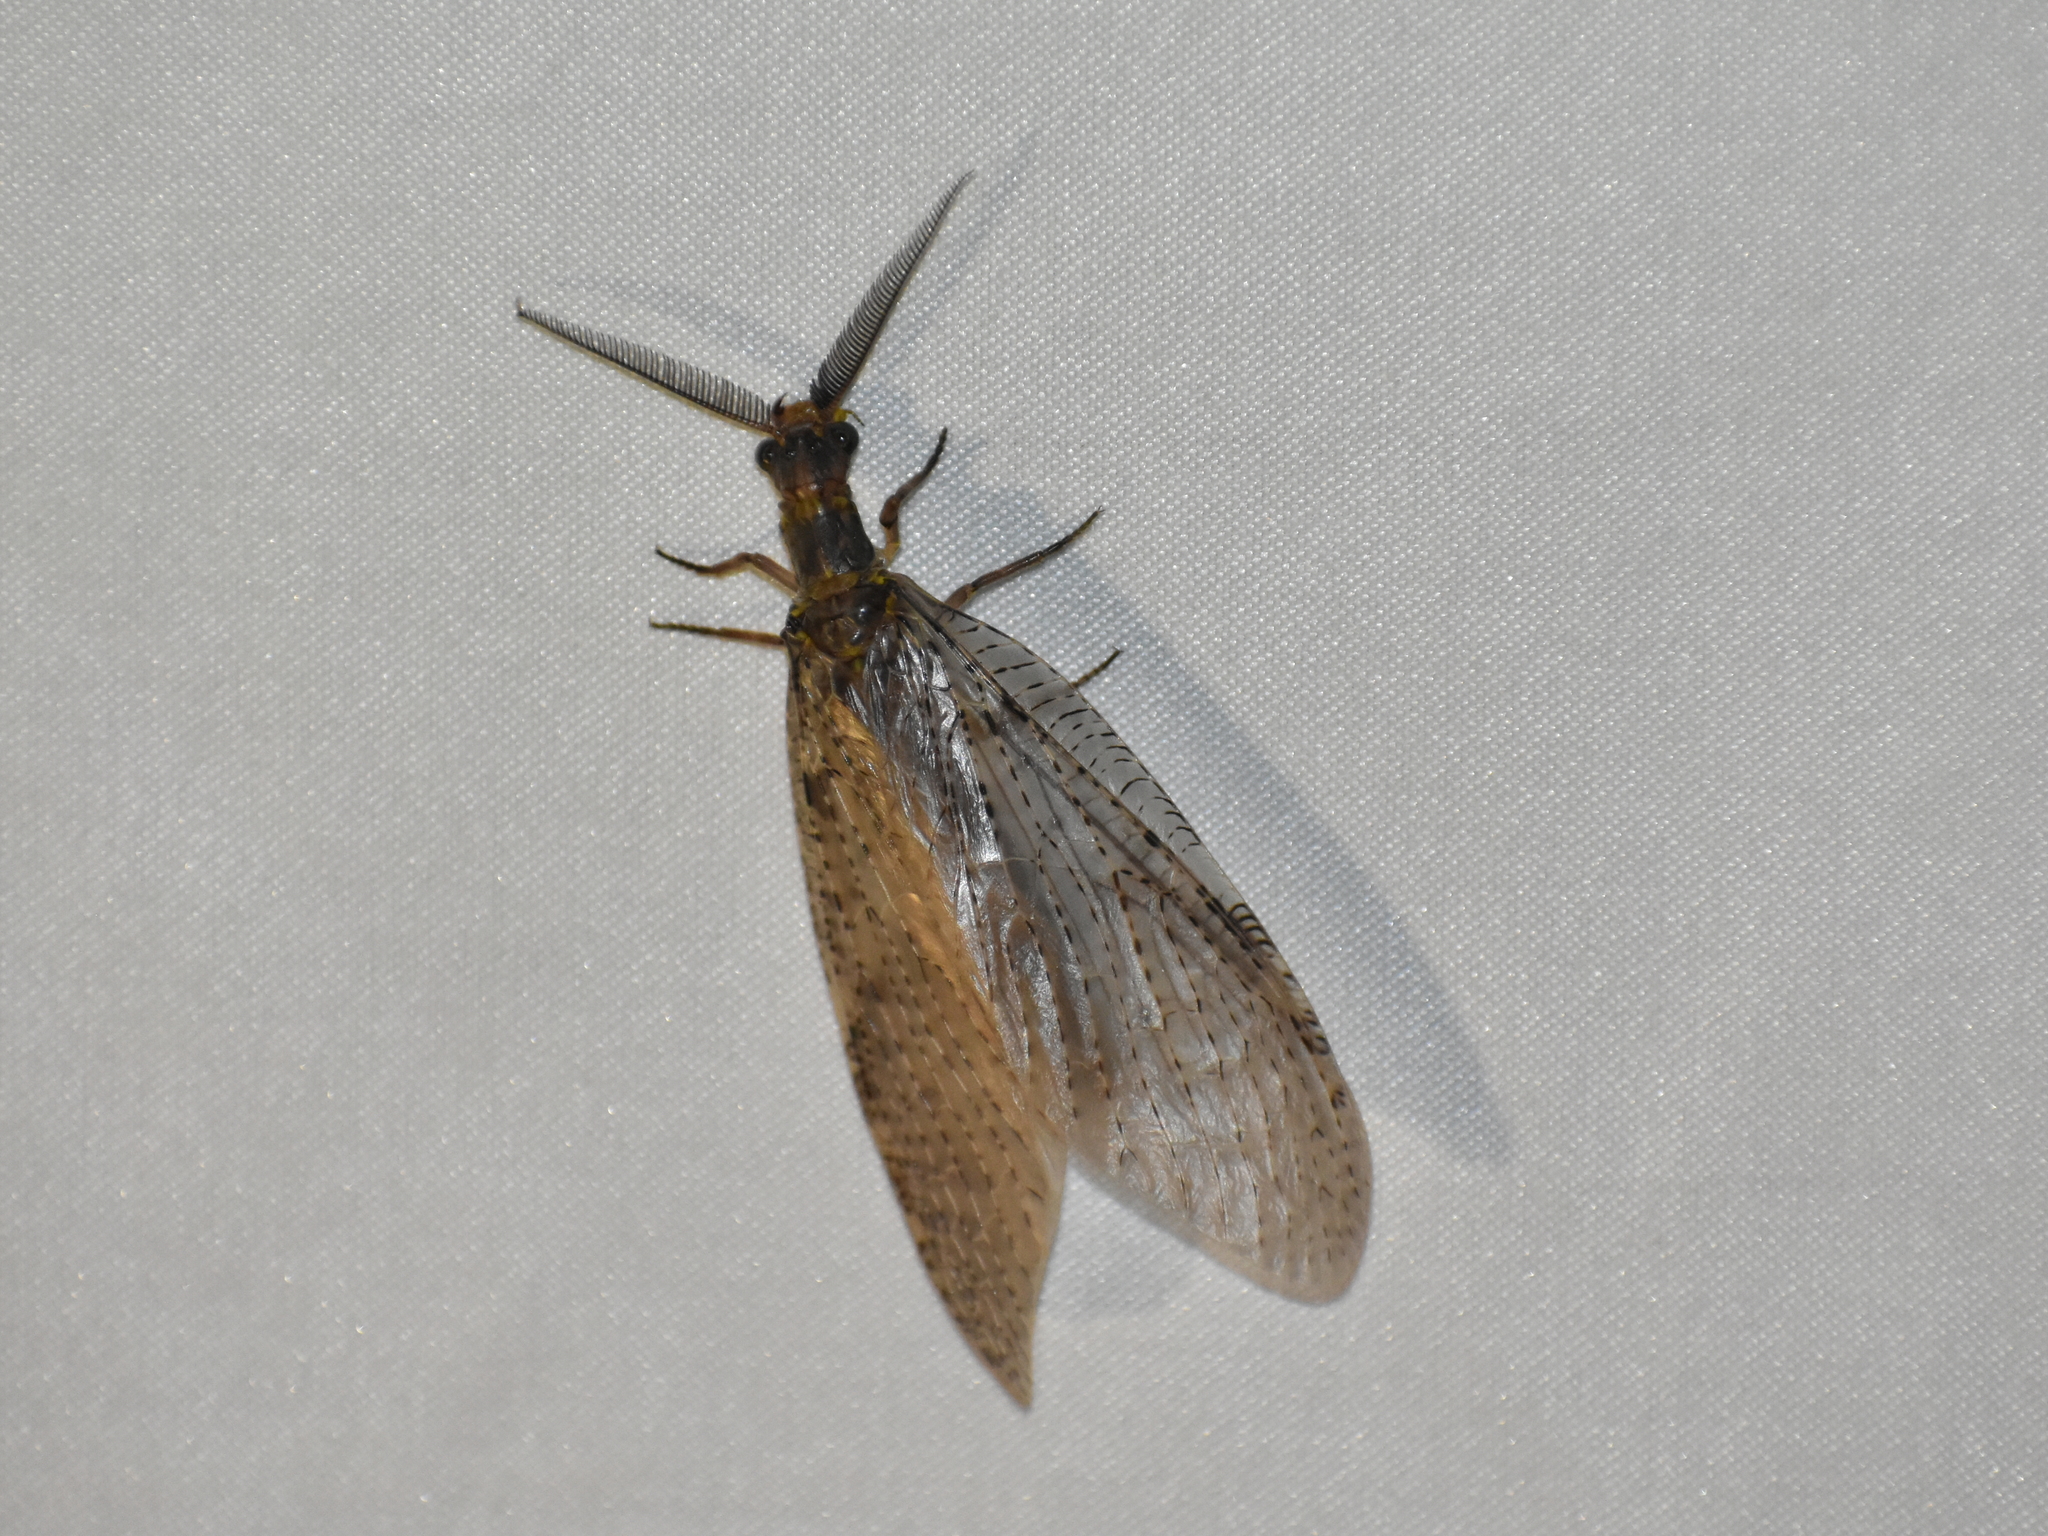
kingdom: Animalia
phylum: Arthropoda
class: Insecta
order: Megaloptera
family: Corydalidae
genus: Chauliodes
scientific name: Chauliodes pectinicornis
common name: Summer fishfly
